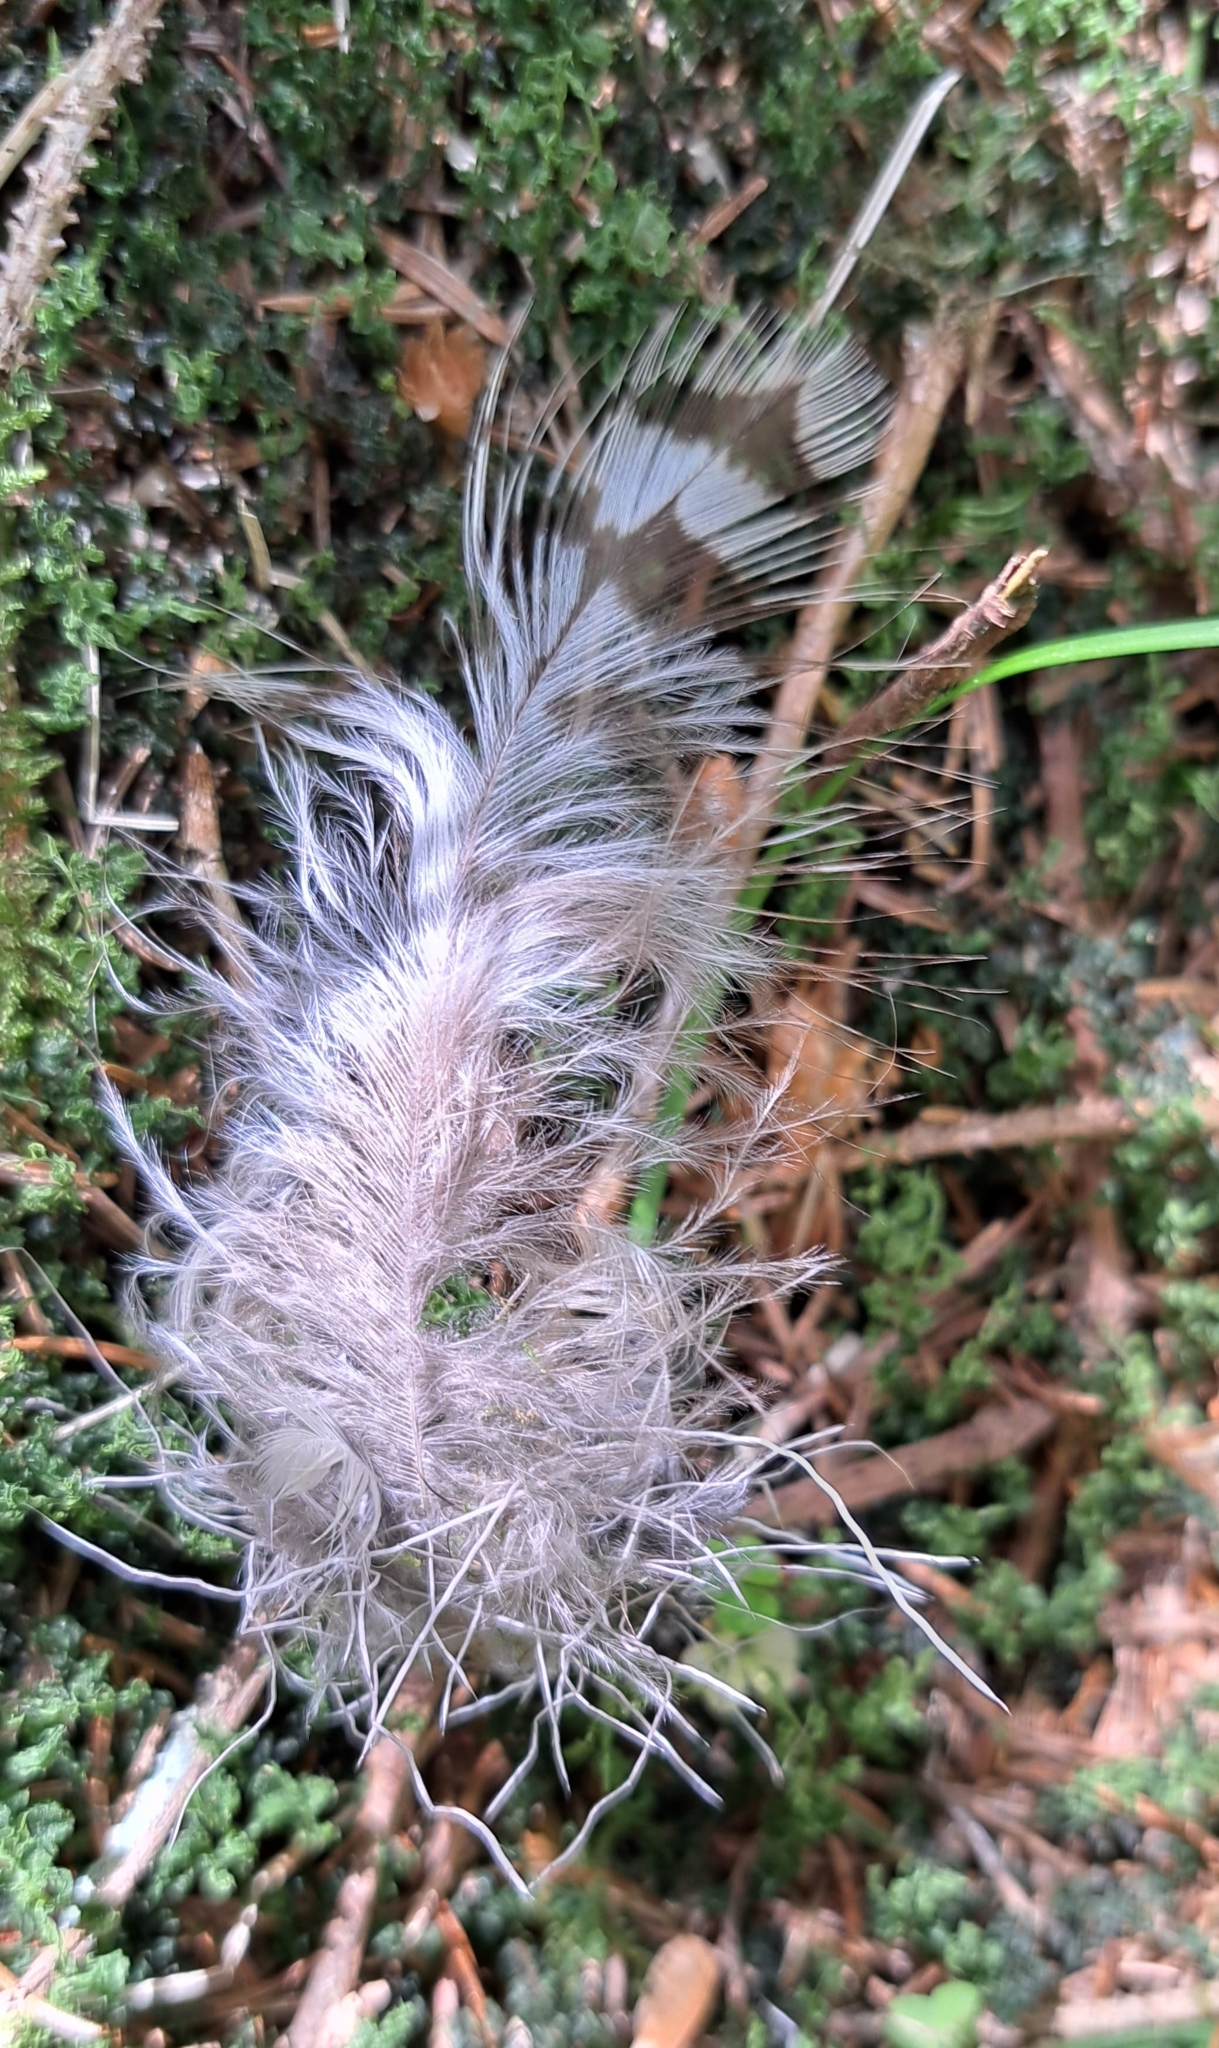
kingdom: Animalia
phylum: Chordata
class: Aves
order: Accipitriformes
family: Accipitridae
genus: Buteo
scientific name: Buteo buteo
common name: Common buzzard
